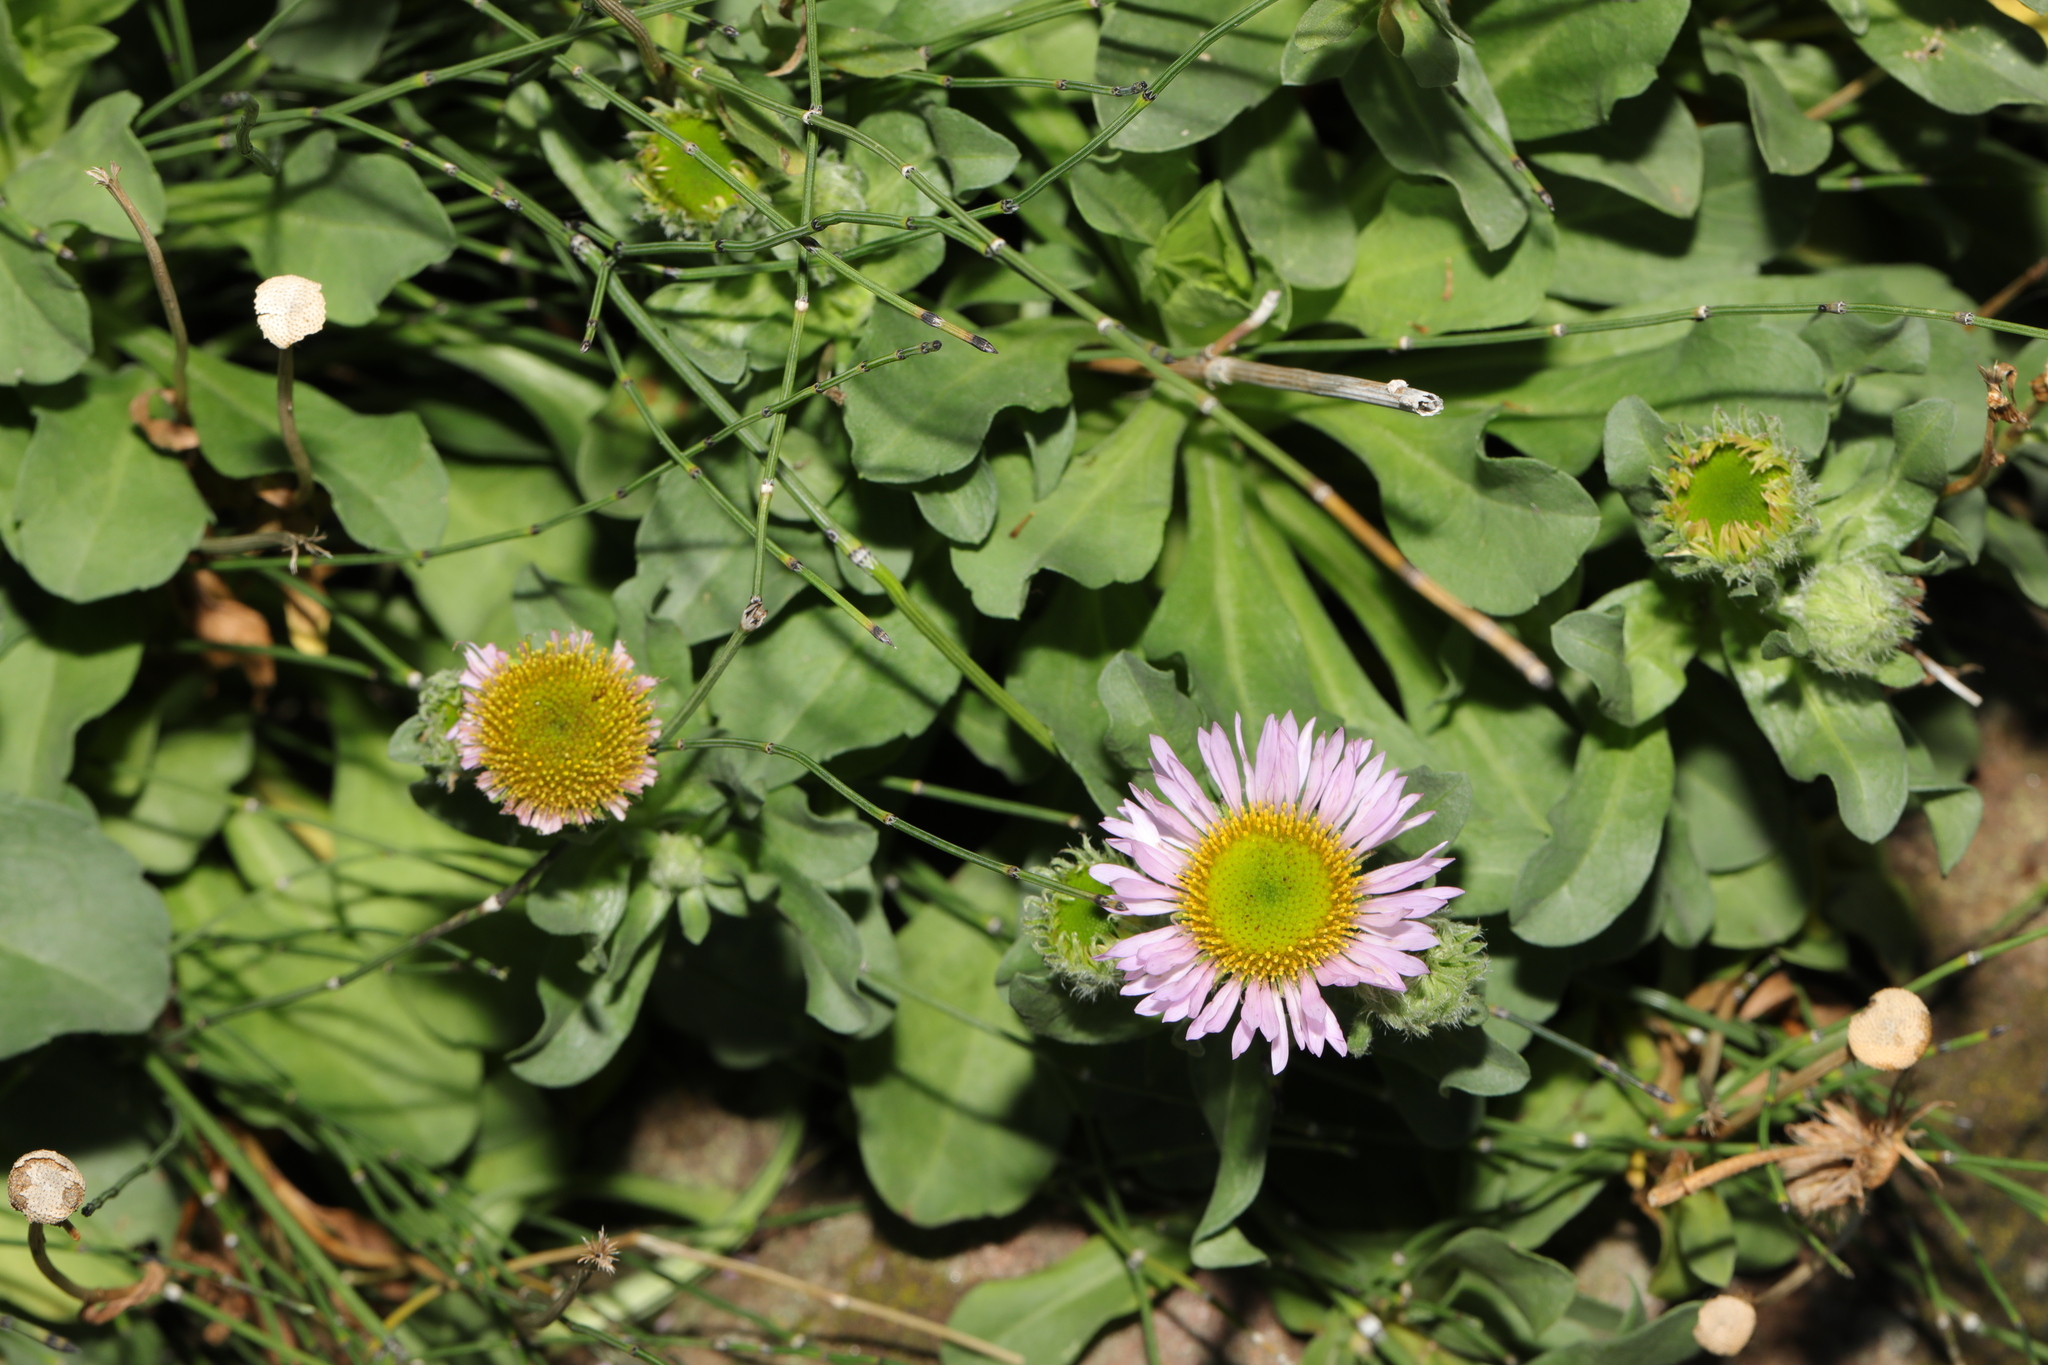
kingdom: Plantae
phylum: Tracheophyta
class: Magnoliopsida
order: Asterales
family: Asteraceae
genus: Erigeron
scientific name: Erigeron glaucus
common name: Seaside daisy
